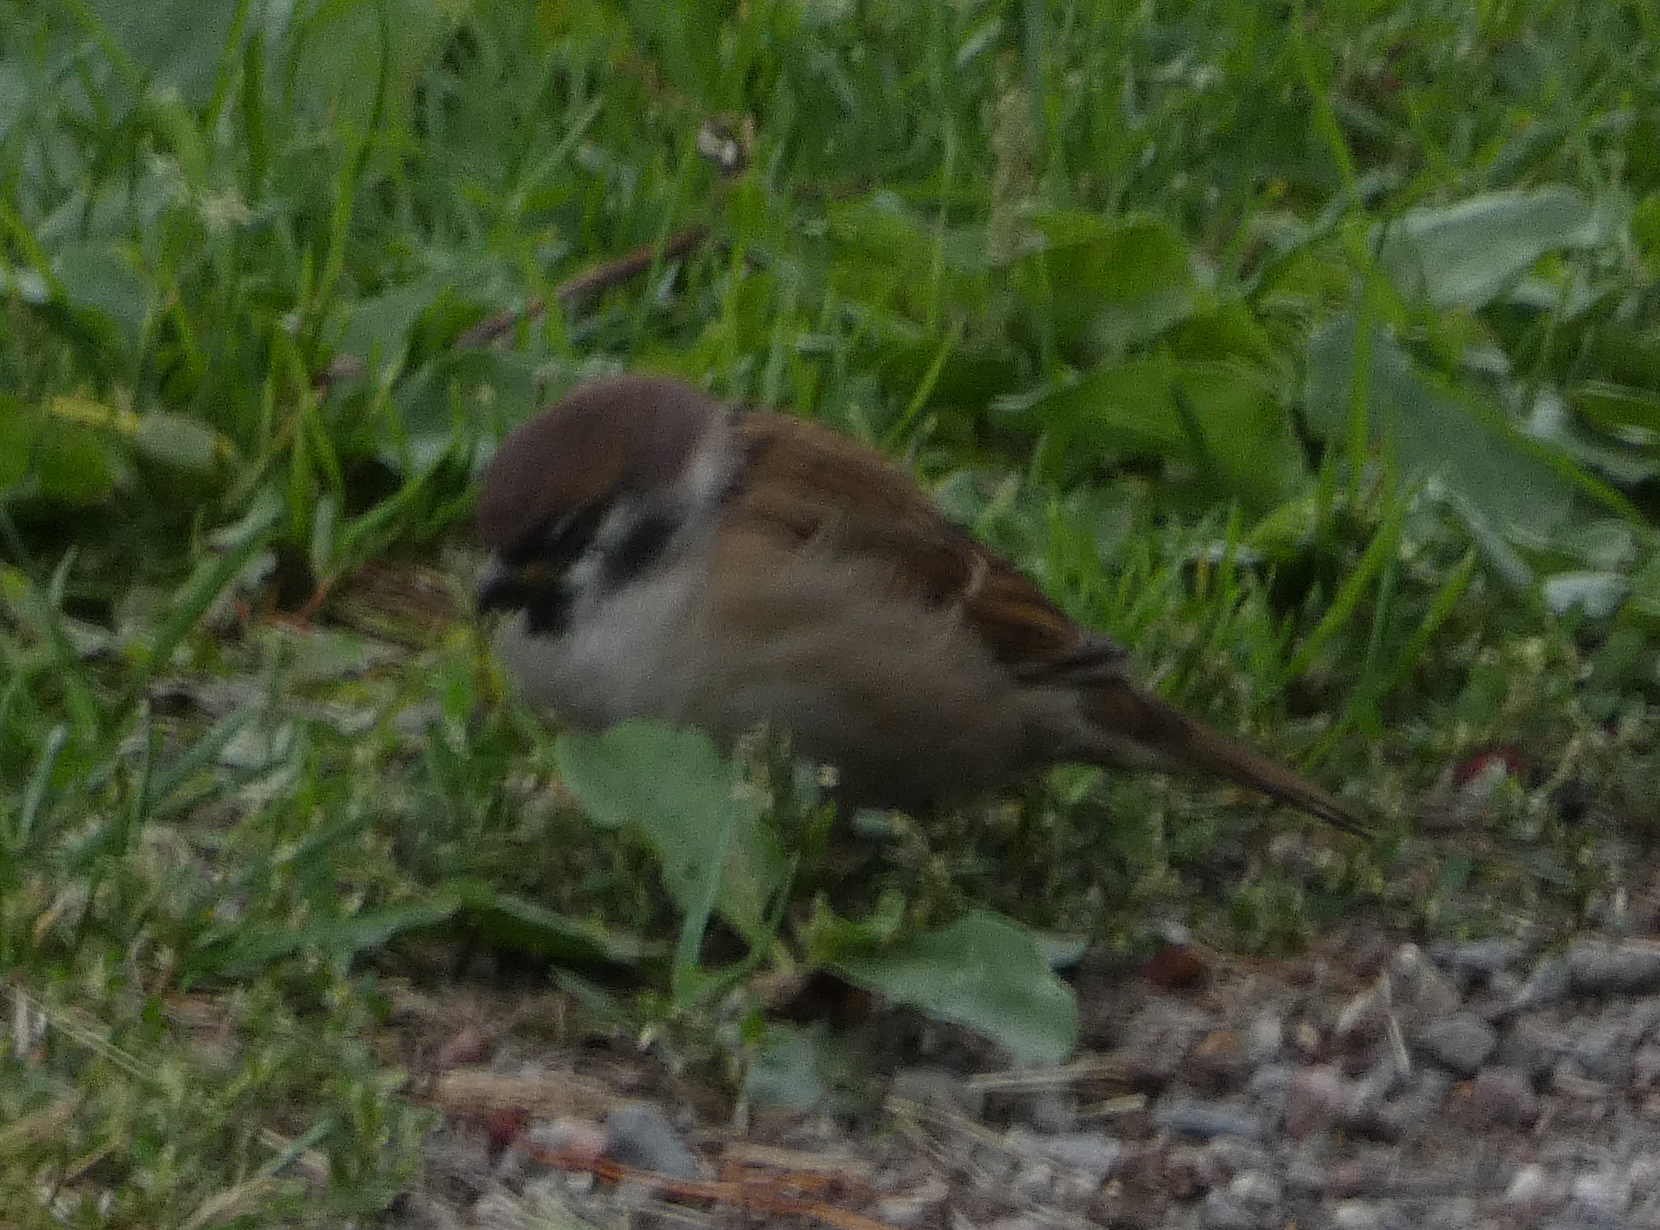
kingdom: Animalia
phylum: Chordata
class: Aves
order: Passeriformes
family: Passeridae
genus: Passer
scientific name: Passer montanus
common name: Eurasian tree sparrow
